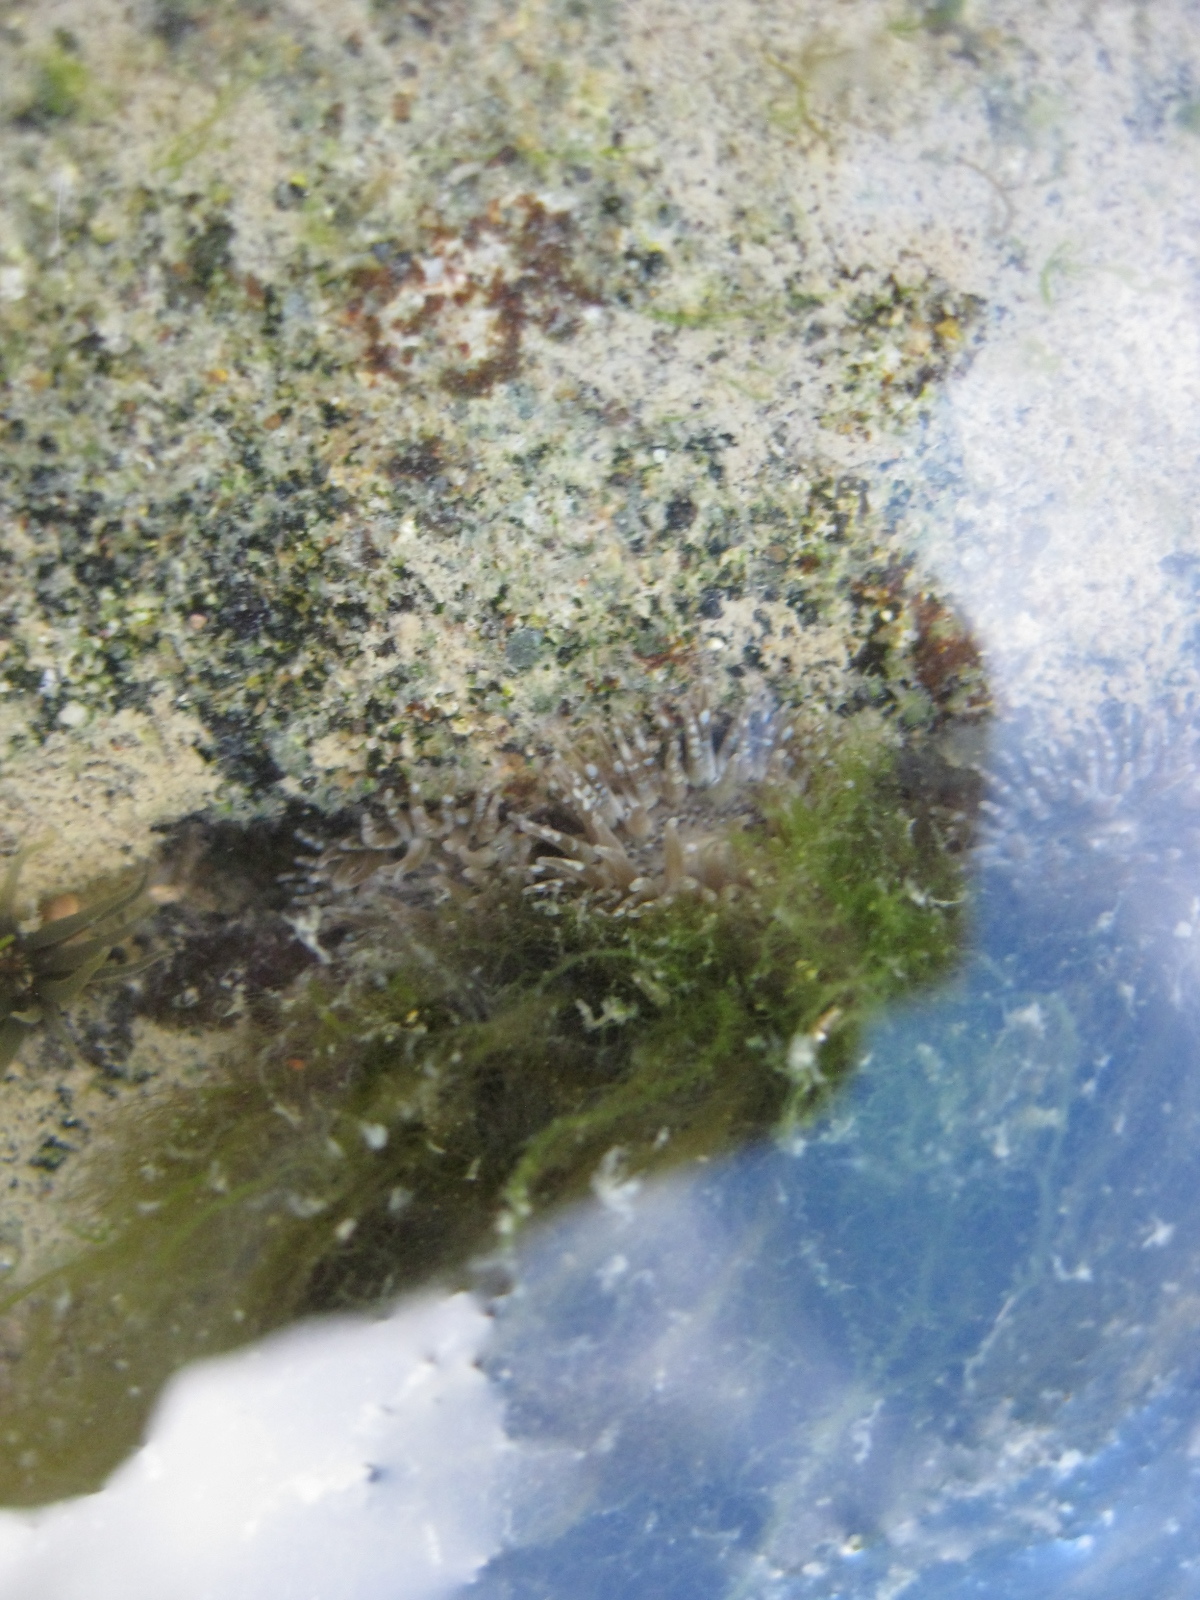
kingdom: Animalia
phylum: Cnidaria
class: Anthozoa
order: Actiniaria
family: Actiniidae
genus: Anthopleura
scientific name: Anthopleura hermaphroditica
